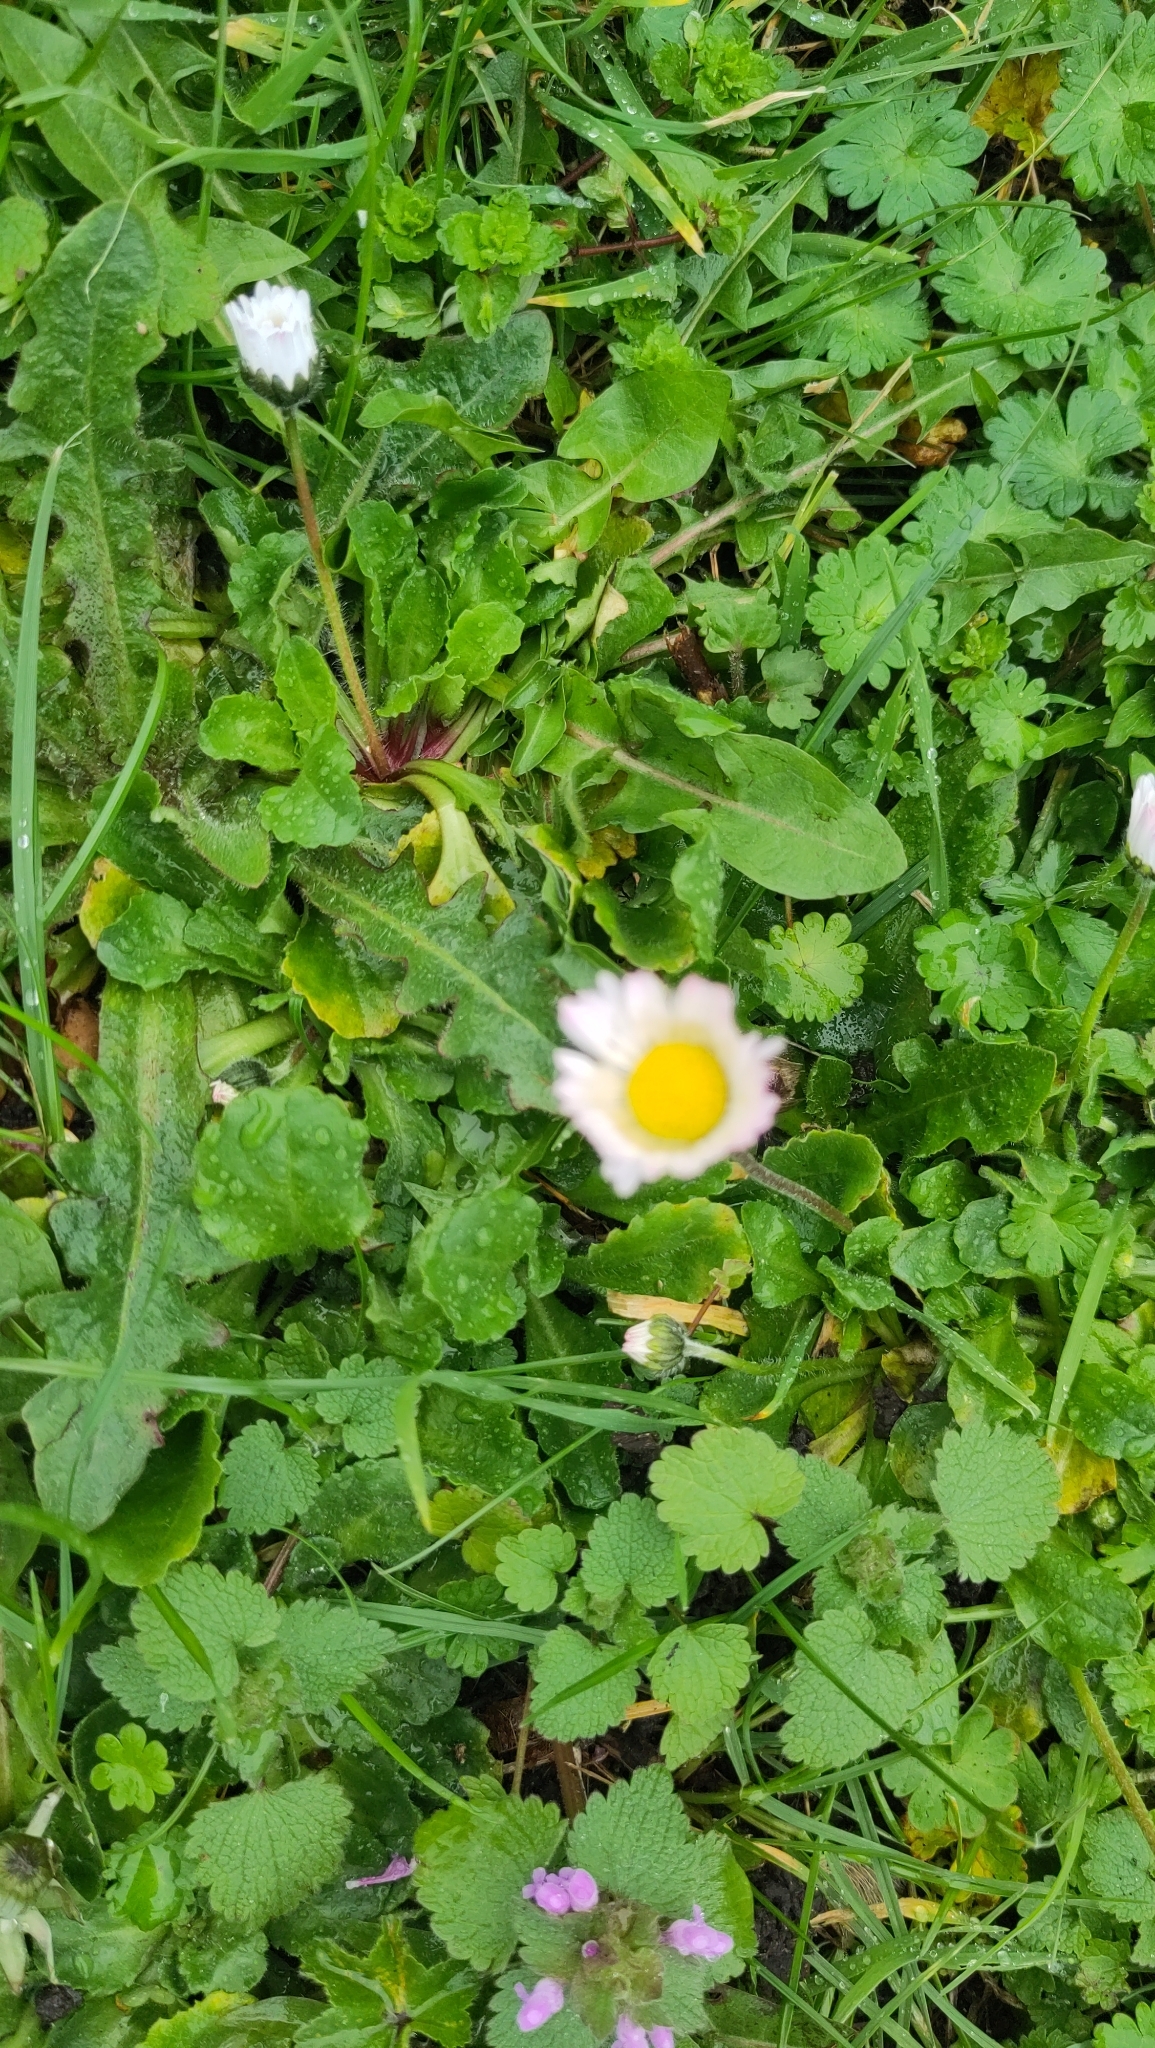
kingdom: Plantae
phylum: Tracheophyta
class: Magnoliopsida
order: Asterales
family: Asteraceae
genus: Bellis
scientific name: Bellis perennis
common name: Lawndaisy
